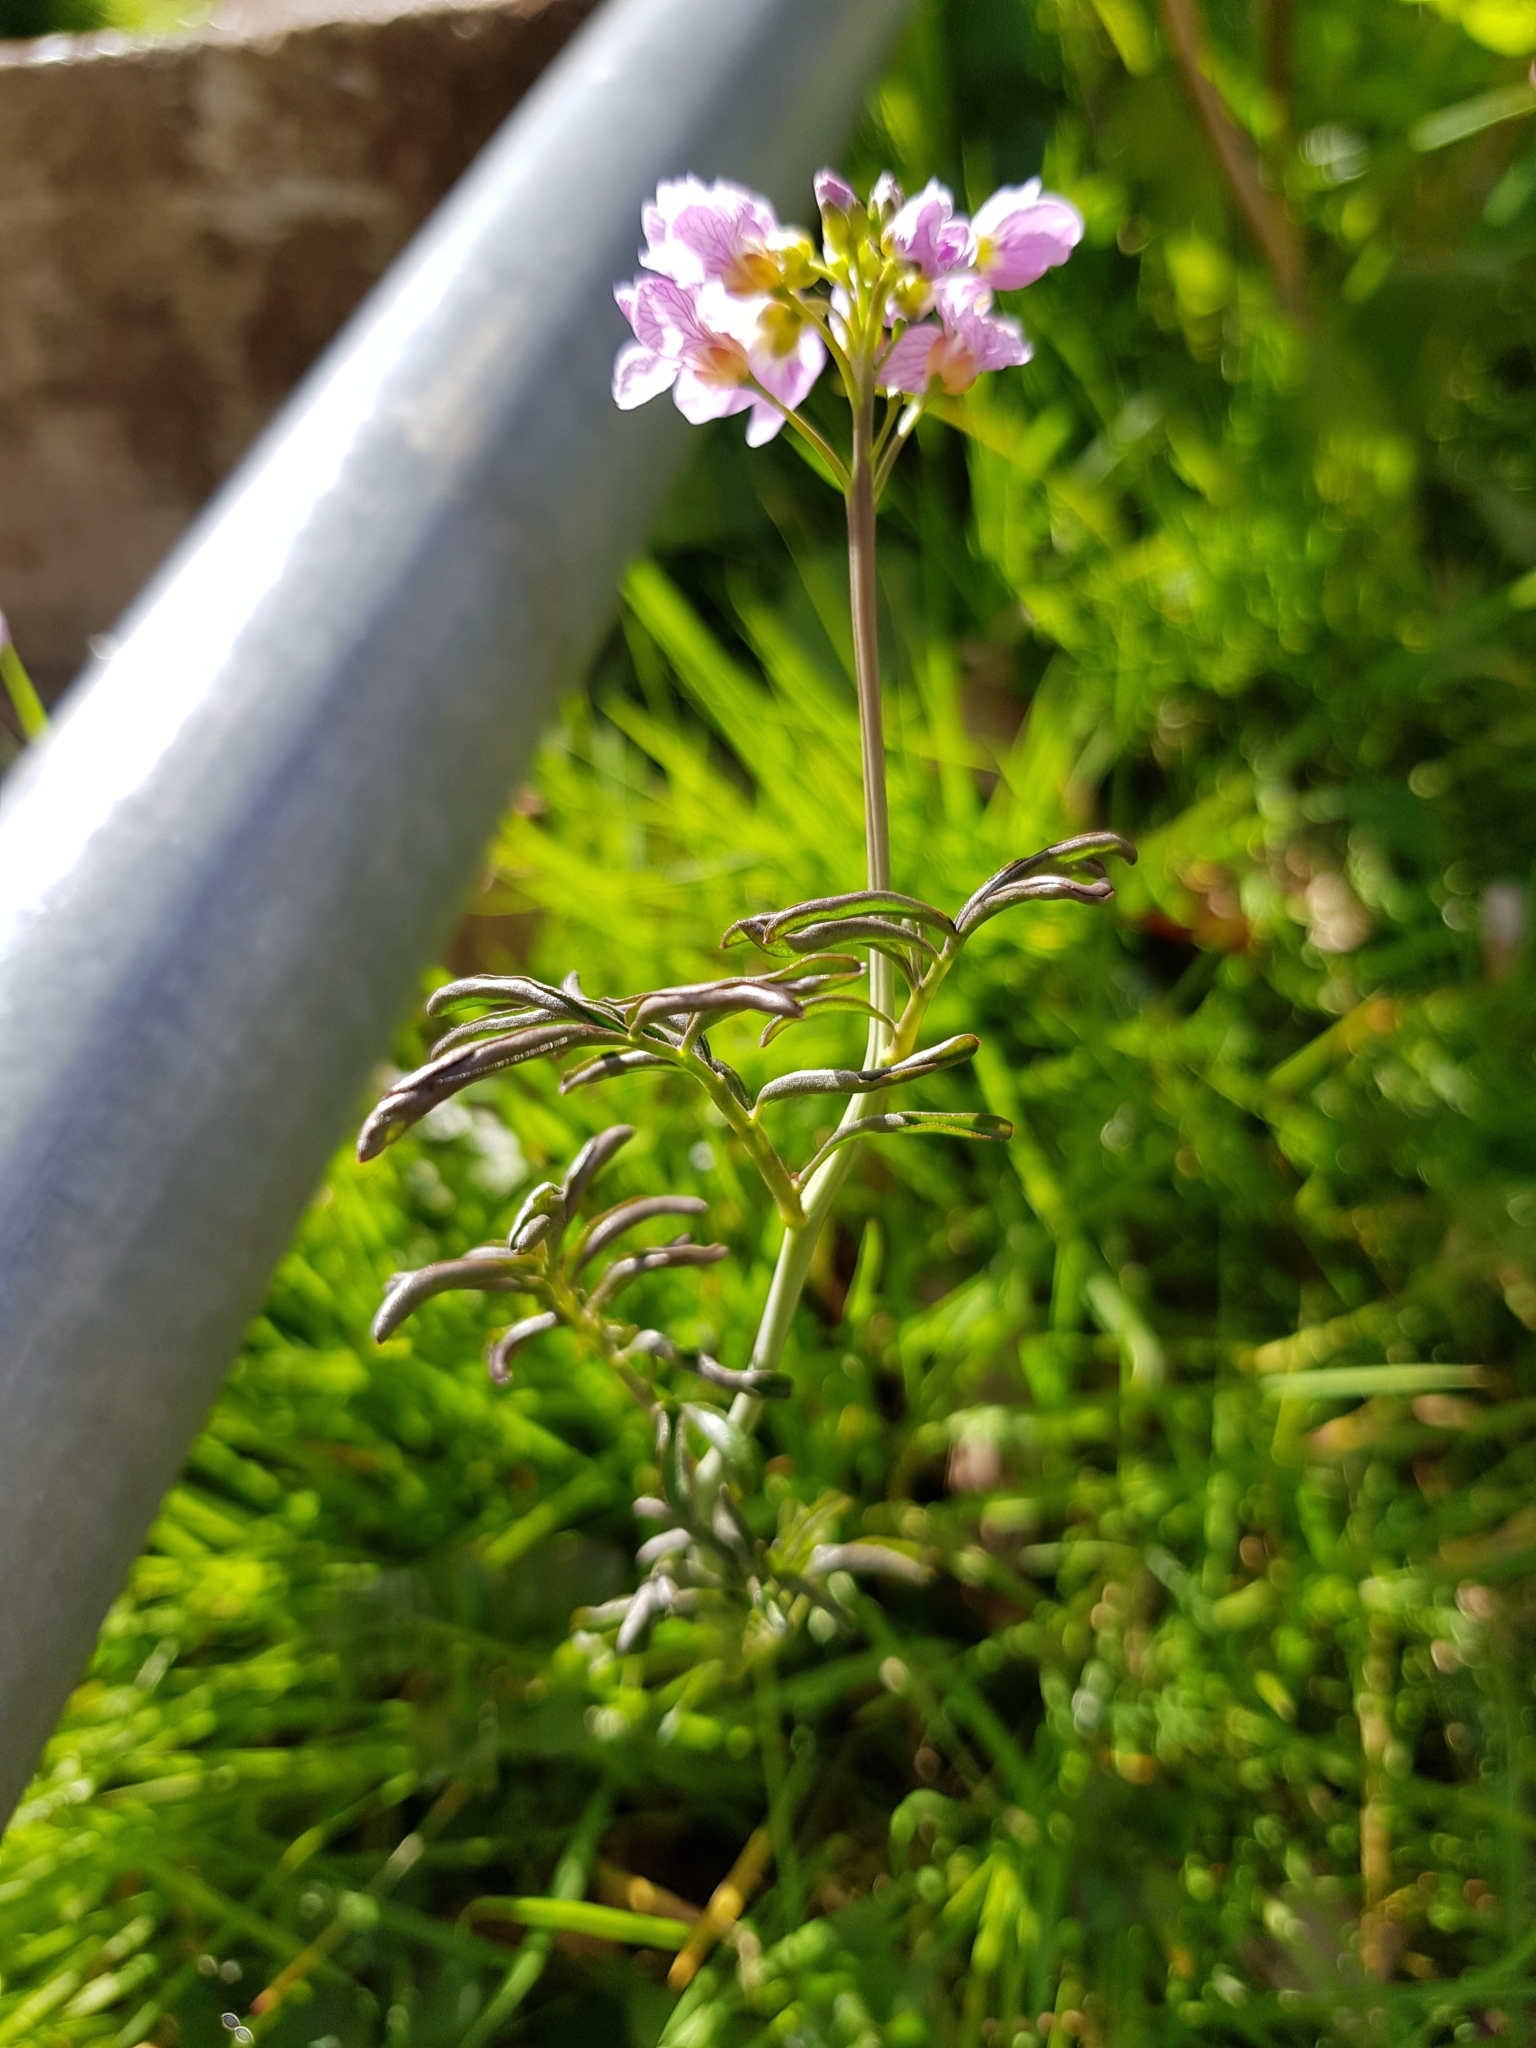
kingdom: Plantae
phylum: Tracheophyta
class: Magnoliopsida
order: Brassicales
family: Brassicaceae
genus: Cardamine
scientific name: Cardamine pratensis
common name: Cuckoo flower
